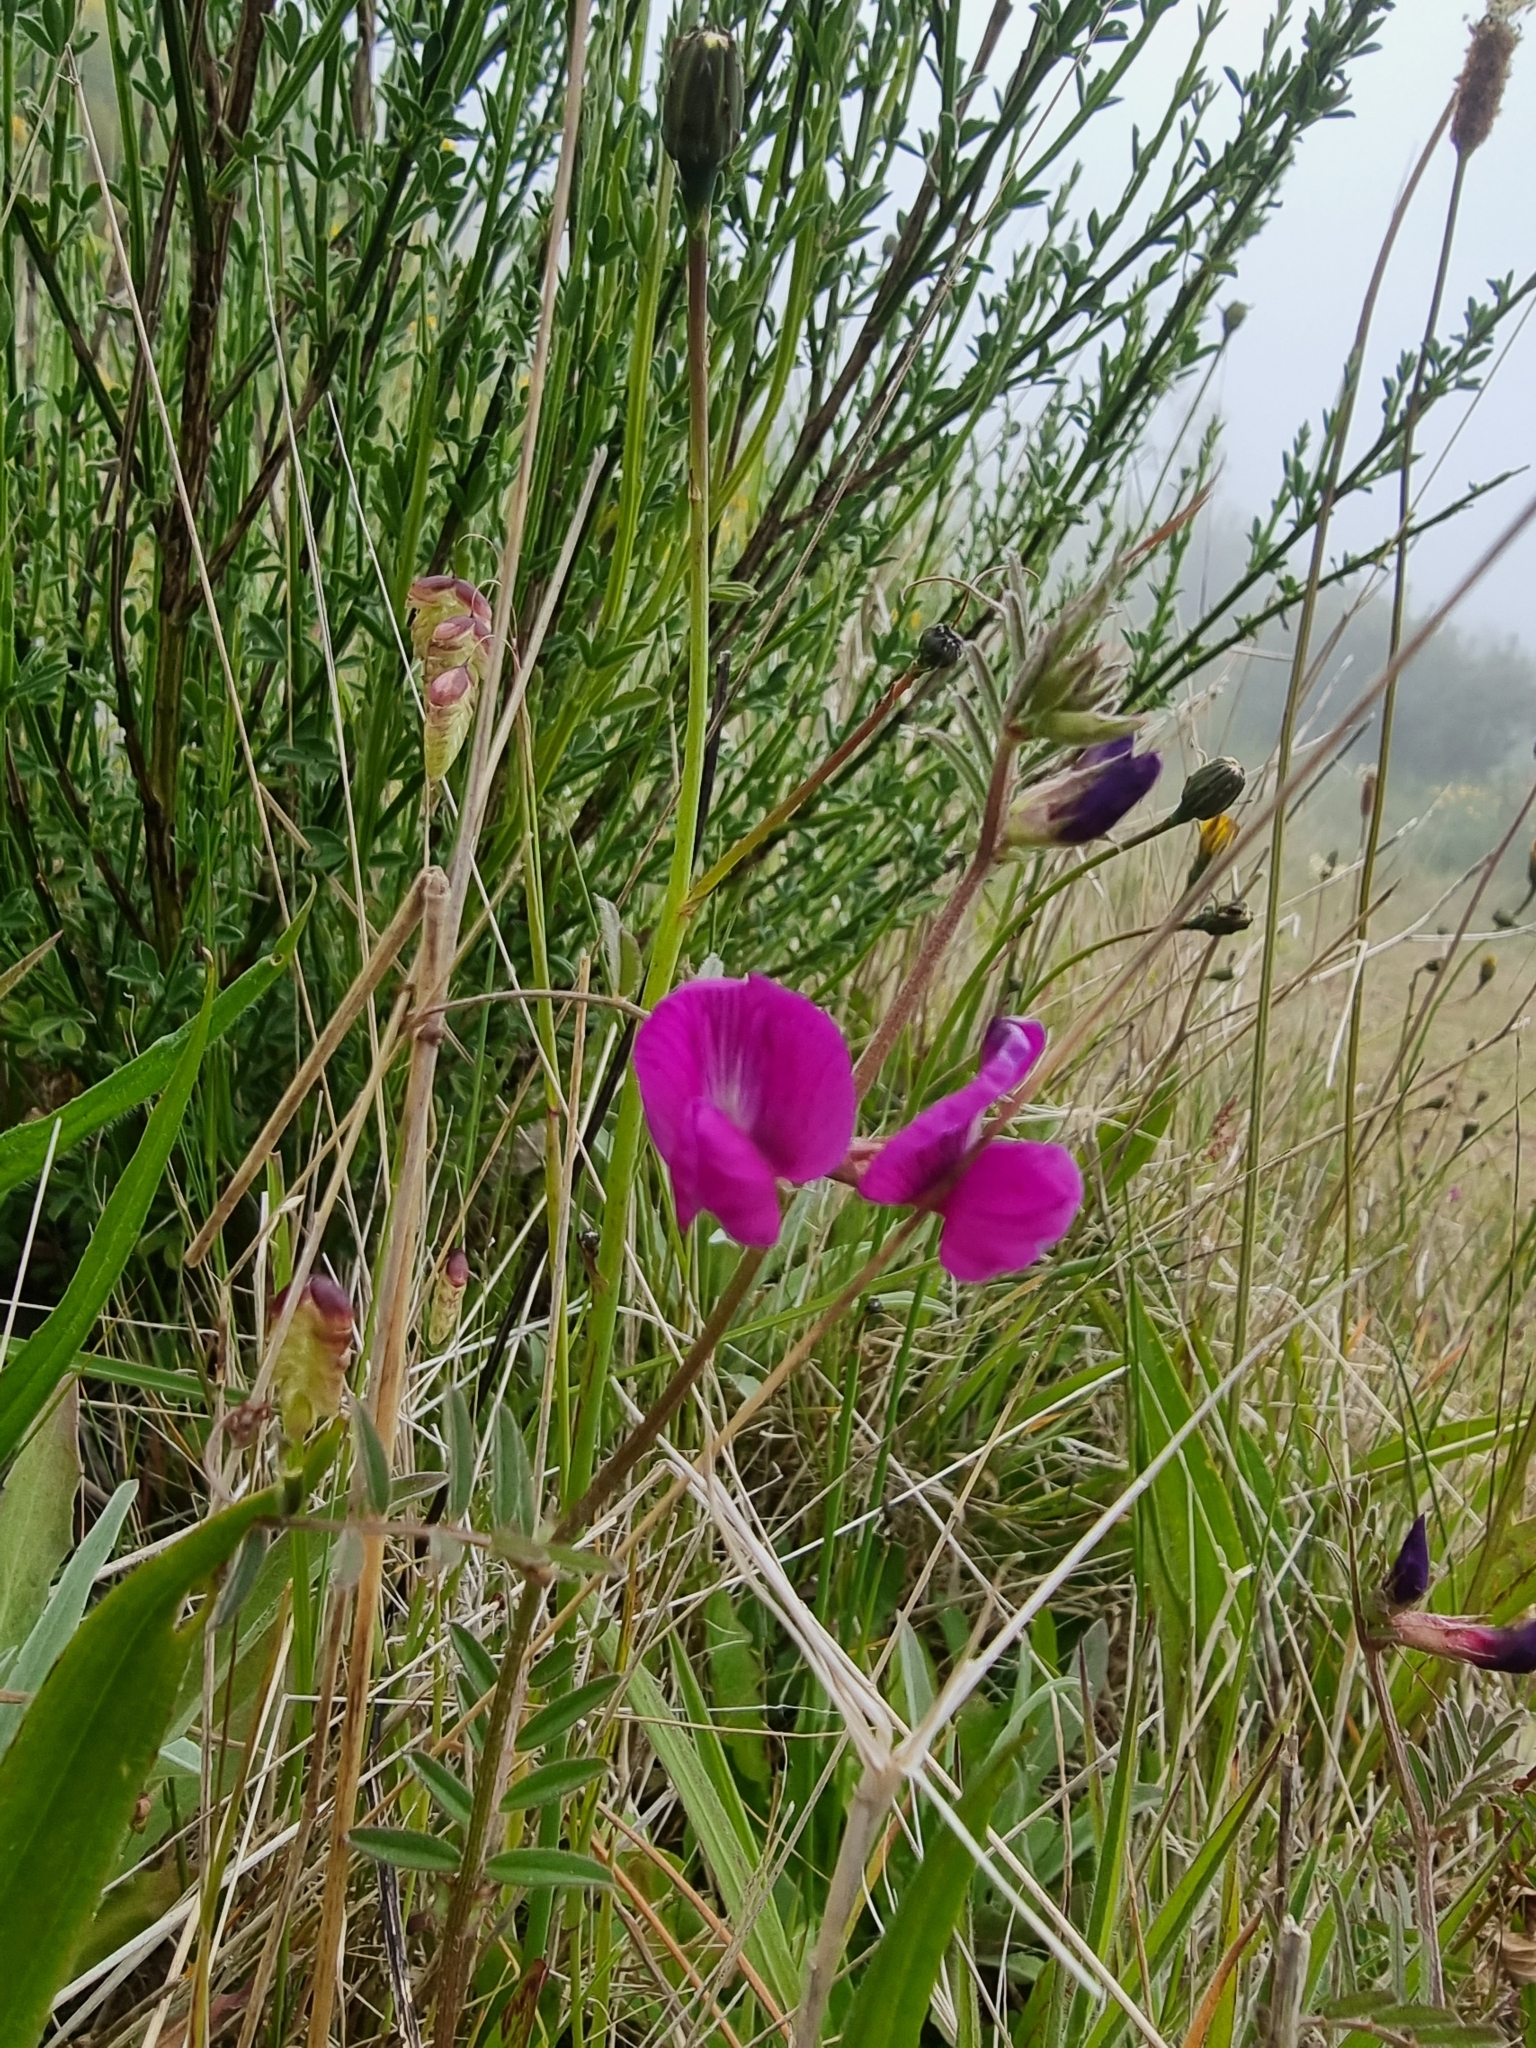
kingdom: Plantae
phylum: Tracheophyta
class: Magnoliopsida
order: Fabales
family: Fabaceae
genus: Vicia
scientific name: Vicia sativa
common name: Garden vetch
